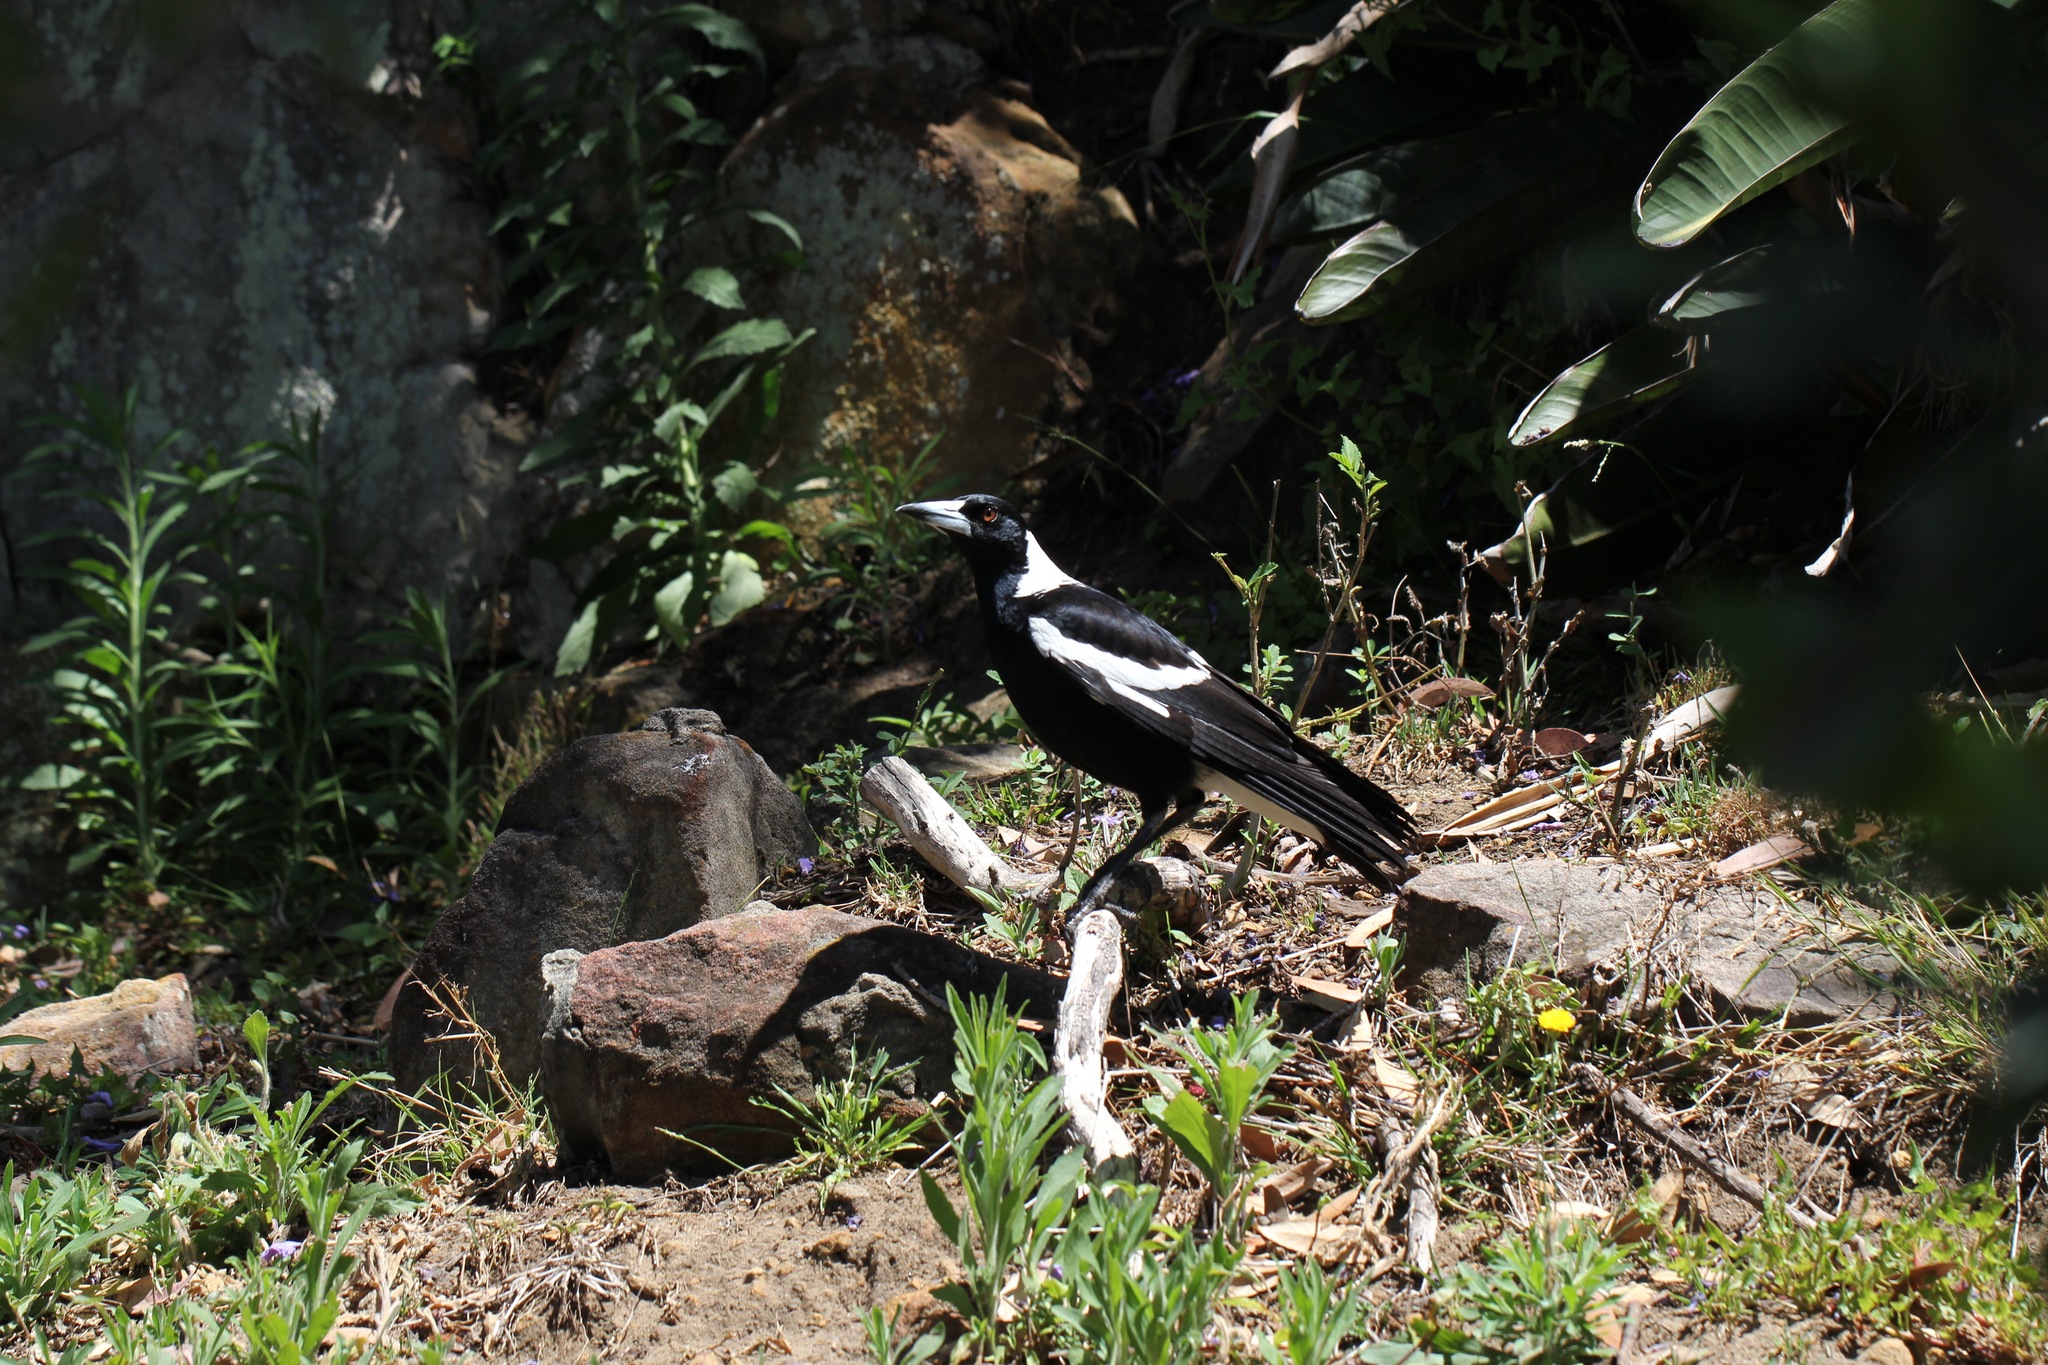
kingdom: Animalia
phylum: Chordata
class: Aves
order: Passeriformes
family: Cracticidae
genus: Gymnorhina
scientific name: Gymnorhina tibicen
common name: Australian magpie
